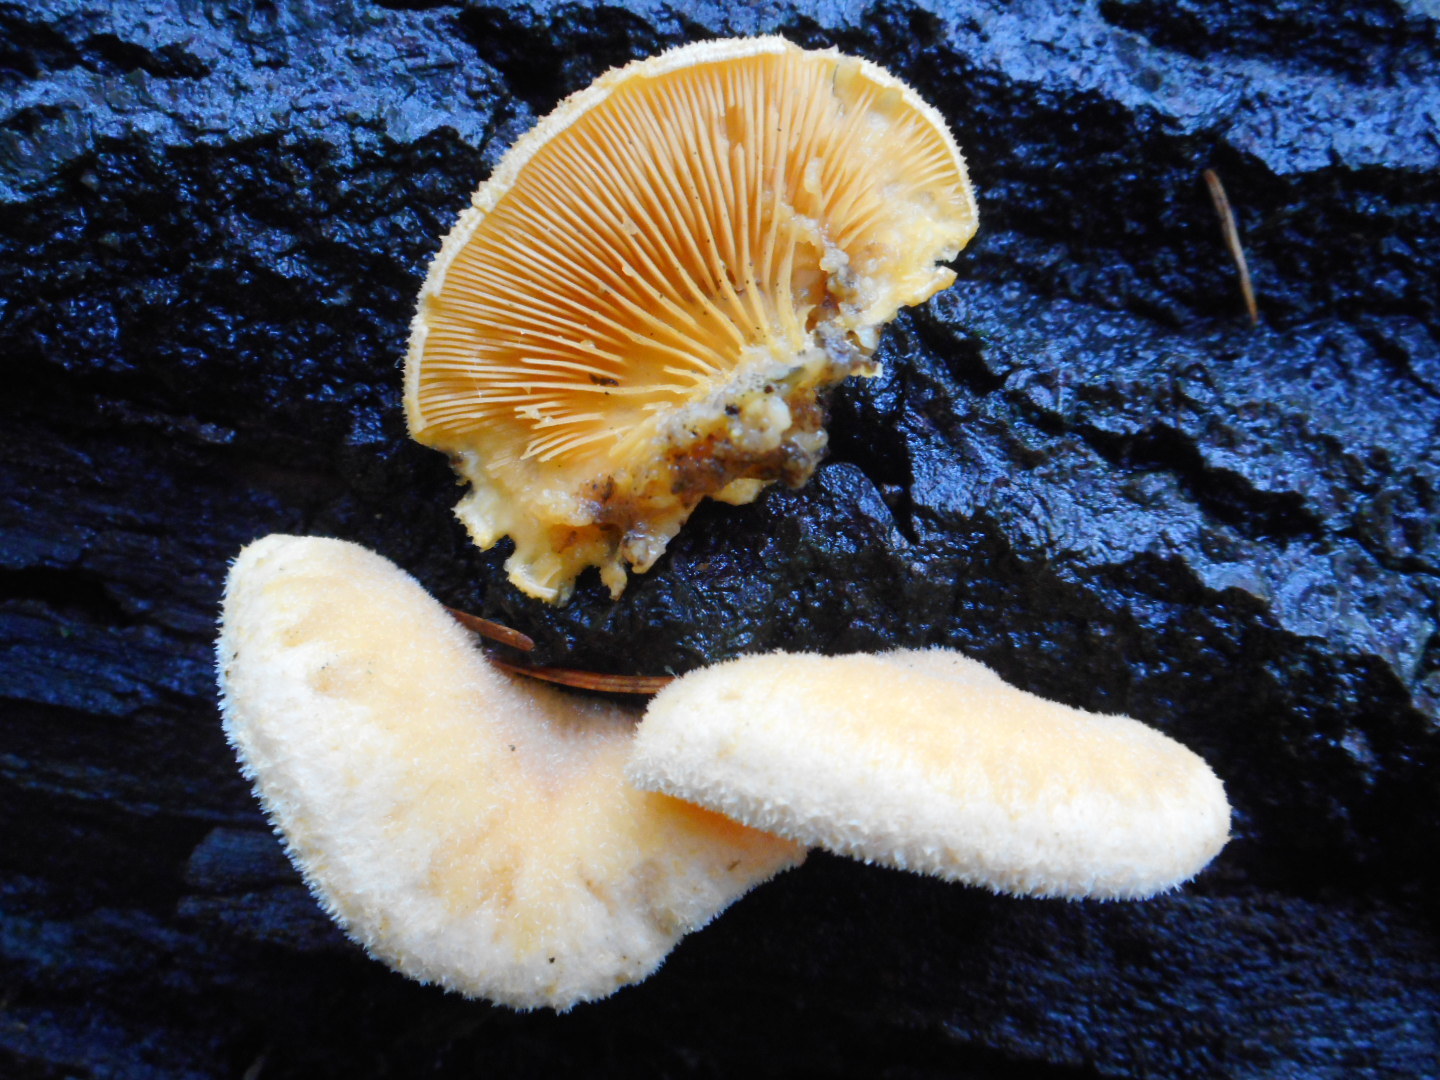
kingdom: Fungi
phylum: Basidiomycota
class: Agaricomycetes
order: Agaricales
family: Phyllotopsidaceae
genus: Phyllotopsis
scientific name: Phyllotopsis nidulans
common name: Orange mock oyster
